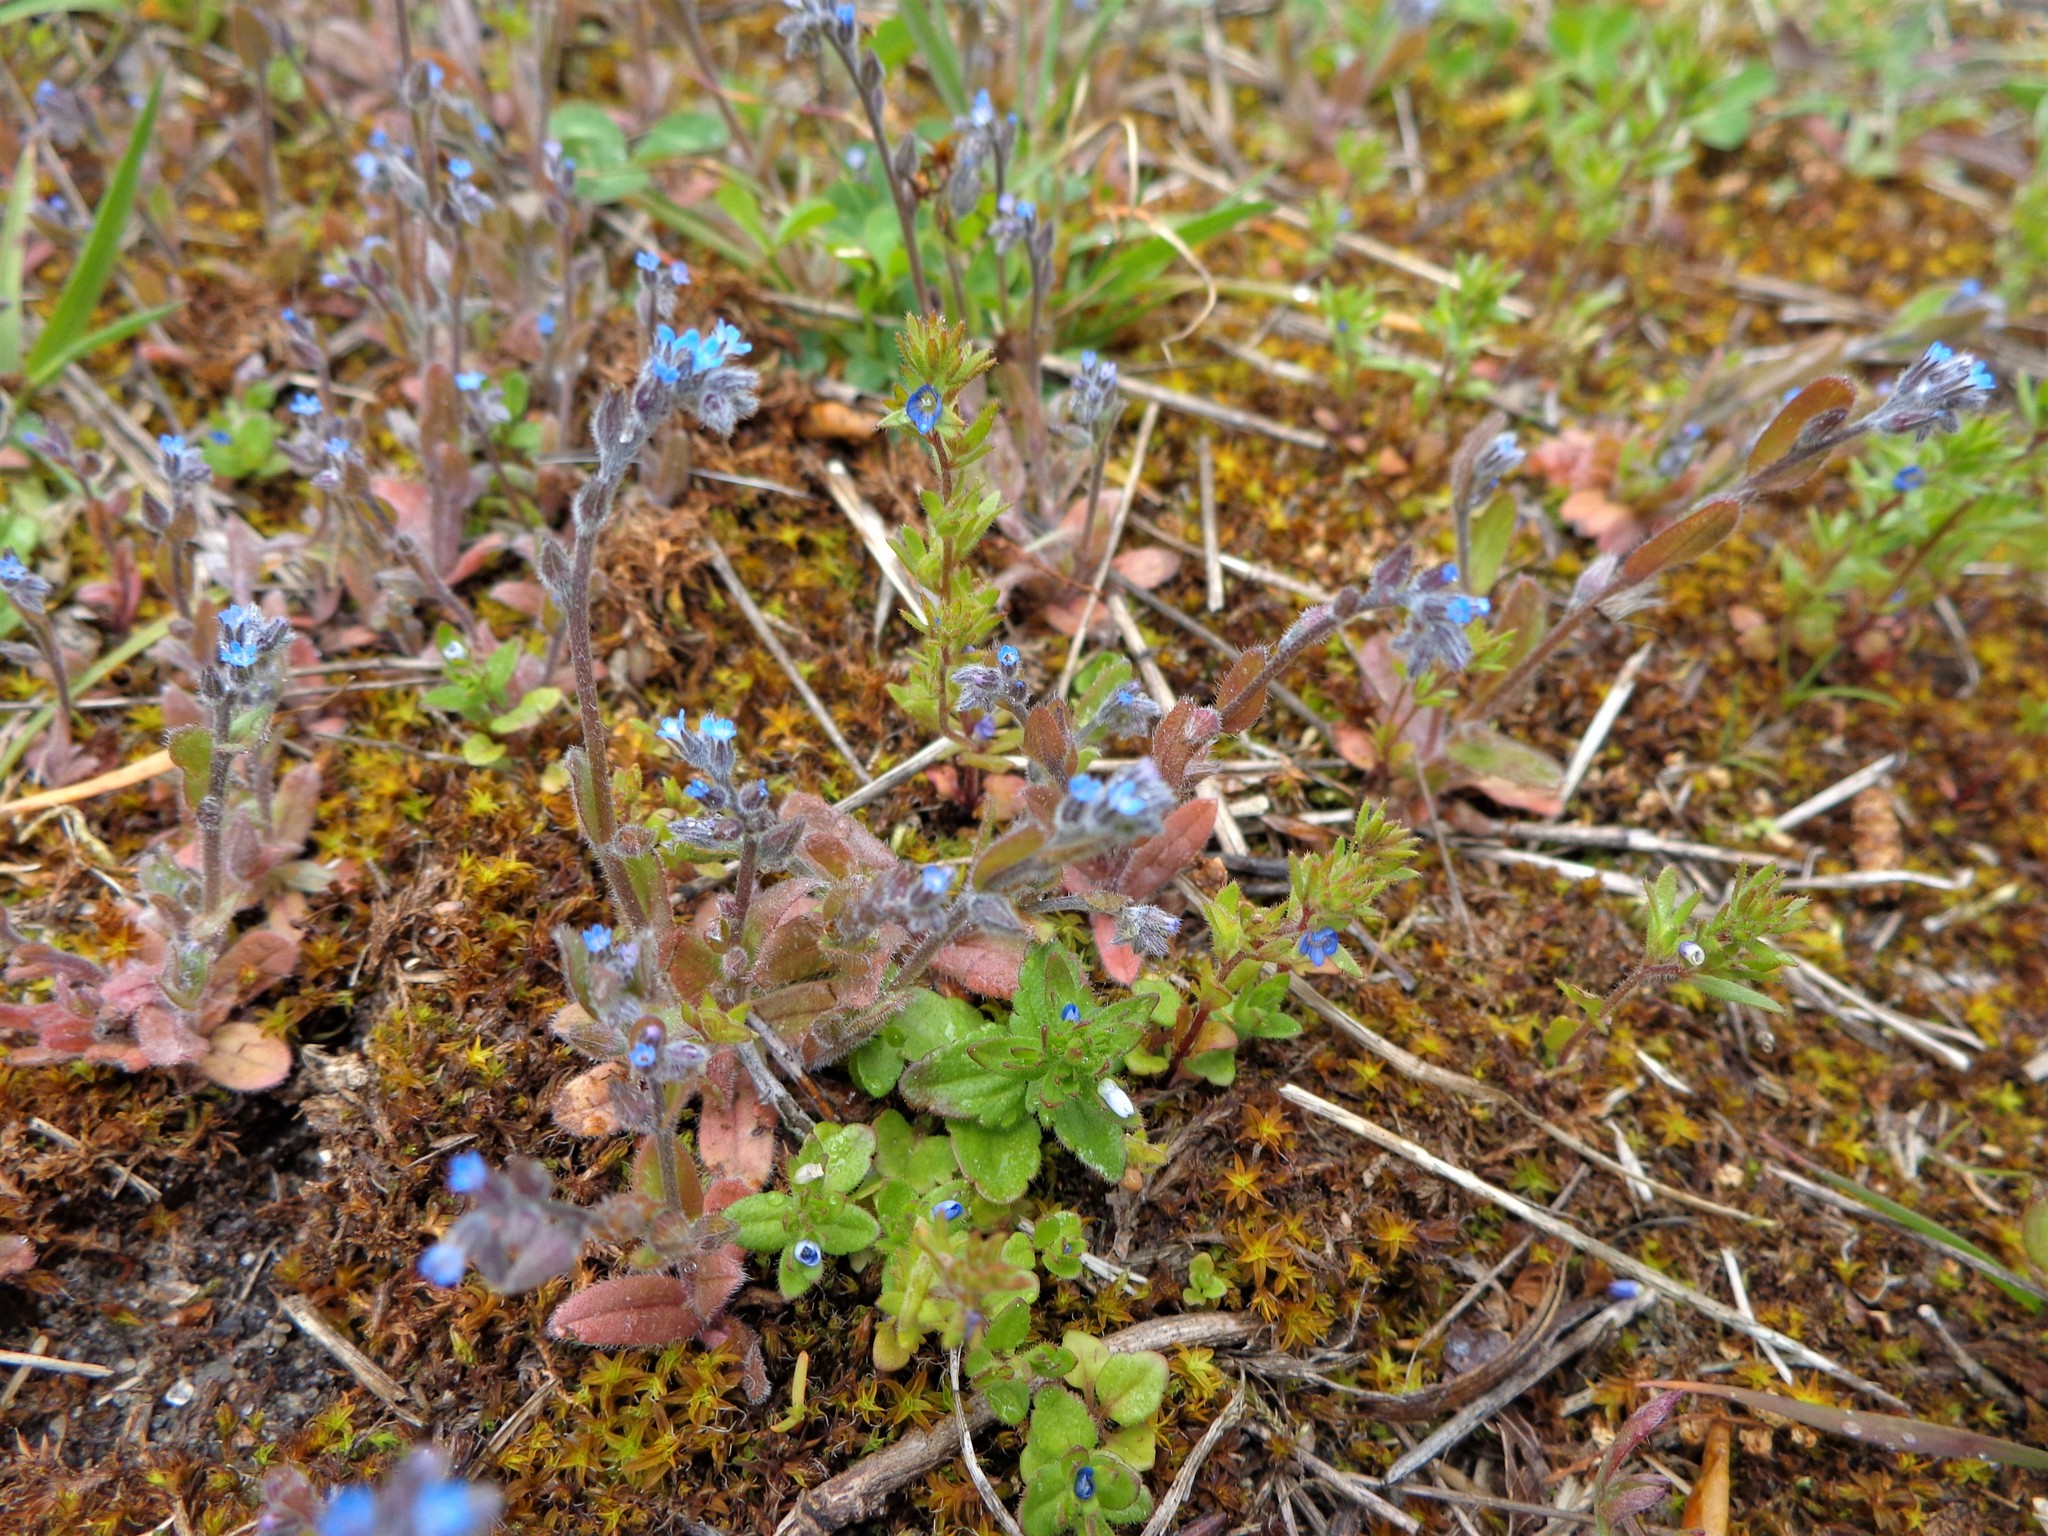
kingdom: Plantae
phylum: Tracheophyta
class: Magnoliopsida
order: Boraginales
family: Boraginaceae
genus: Myosotis
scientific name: Myosotis stricta
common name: Strict forget-me-not
